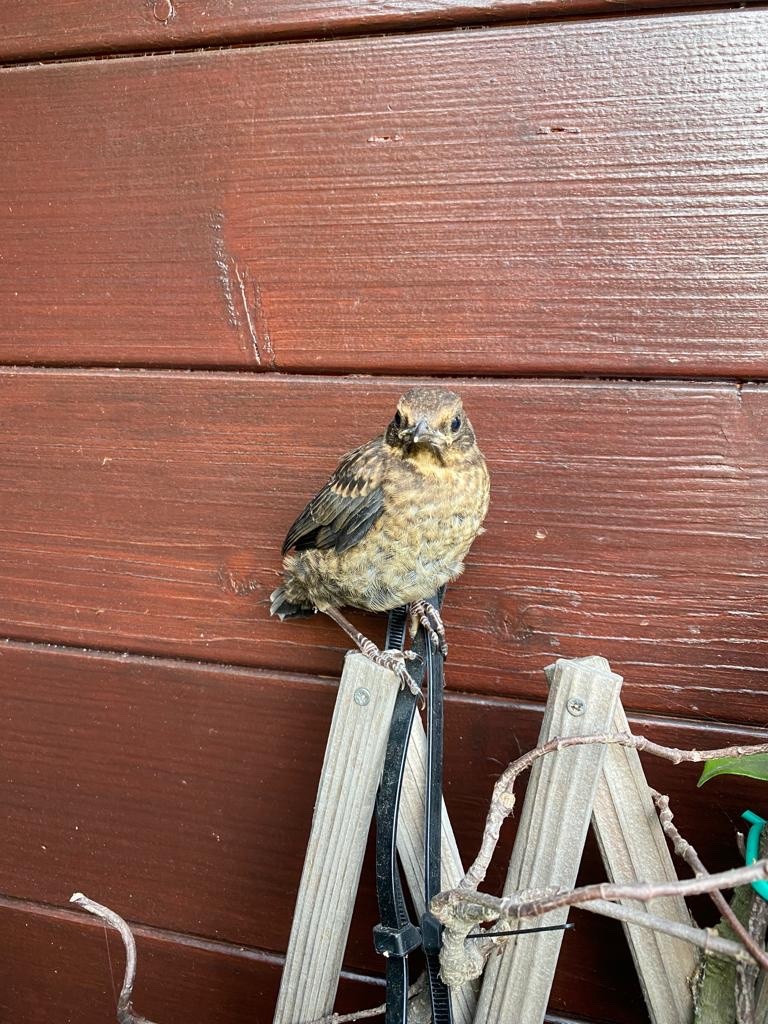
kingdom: Animalia
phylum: Chordata
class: Aves
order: Passeriformes
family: Turdidae
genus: Turdus
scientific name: Turdus merula
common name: Common blackbird
